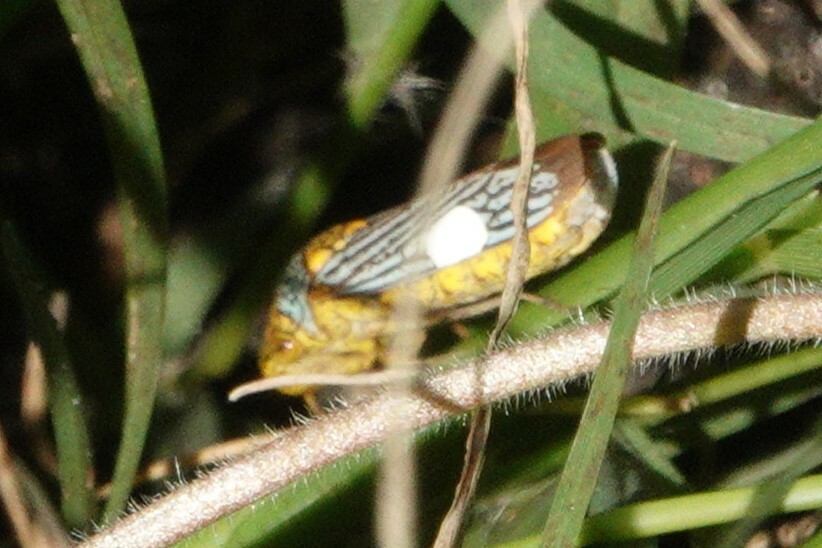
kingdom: Animalia
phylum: Arthropoda
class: Insecta
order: Hemiptera
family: Cicadellidae
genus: Oncometopia
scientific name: Oncometopia nigricans
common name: Black-winged sharpshooter
